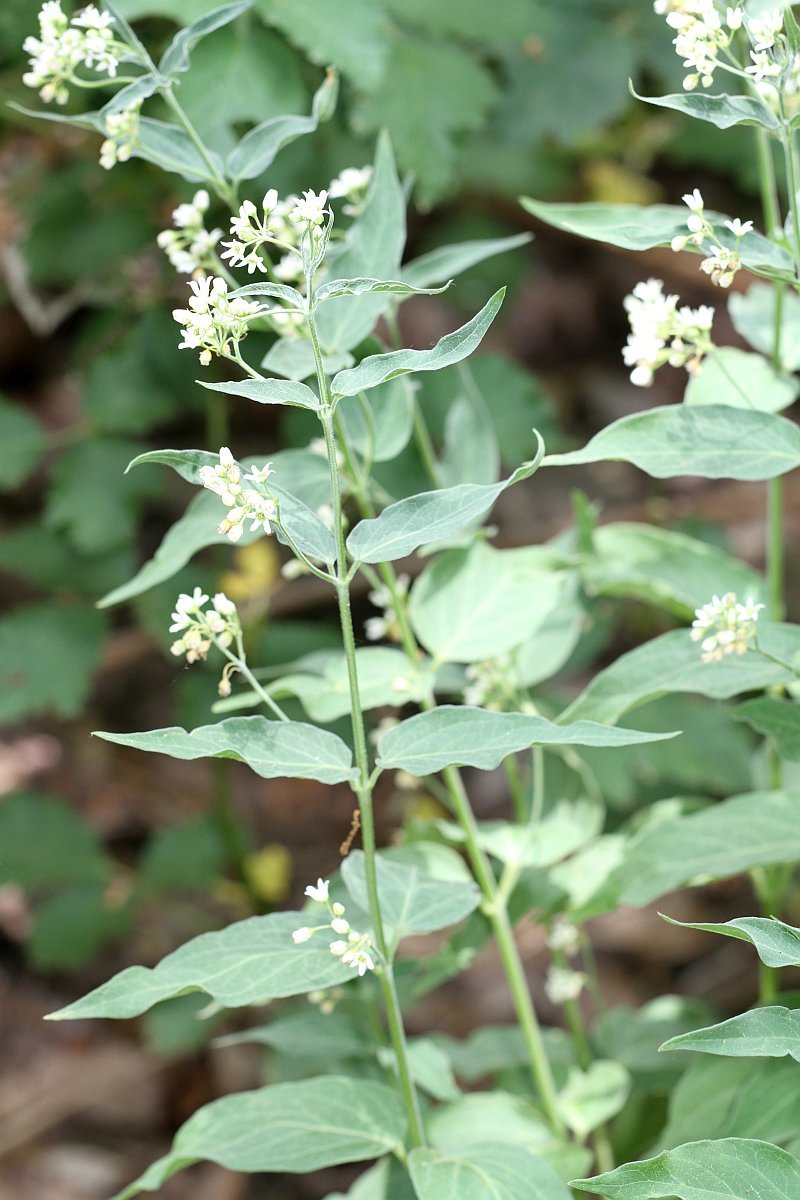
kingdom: Plantae
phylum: Tracheophyta
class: Magnoliopsida
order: Gentianales
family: Apocynaceae
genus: Vincetoxicum
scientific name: Vincetoxicum hirundinaria
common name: White swallowwort
